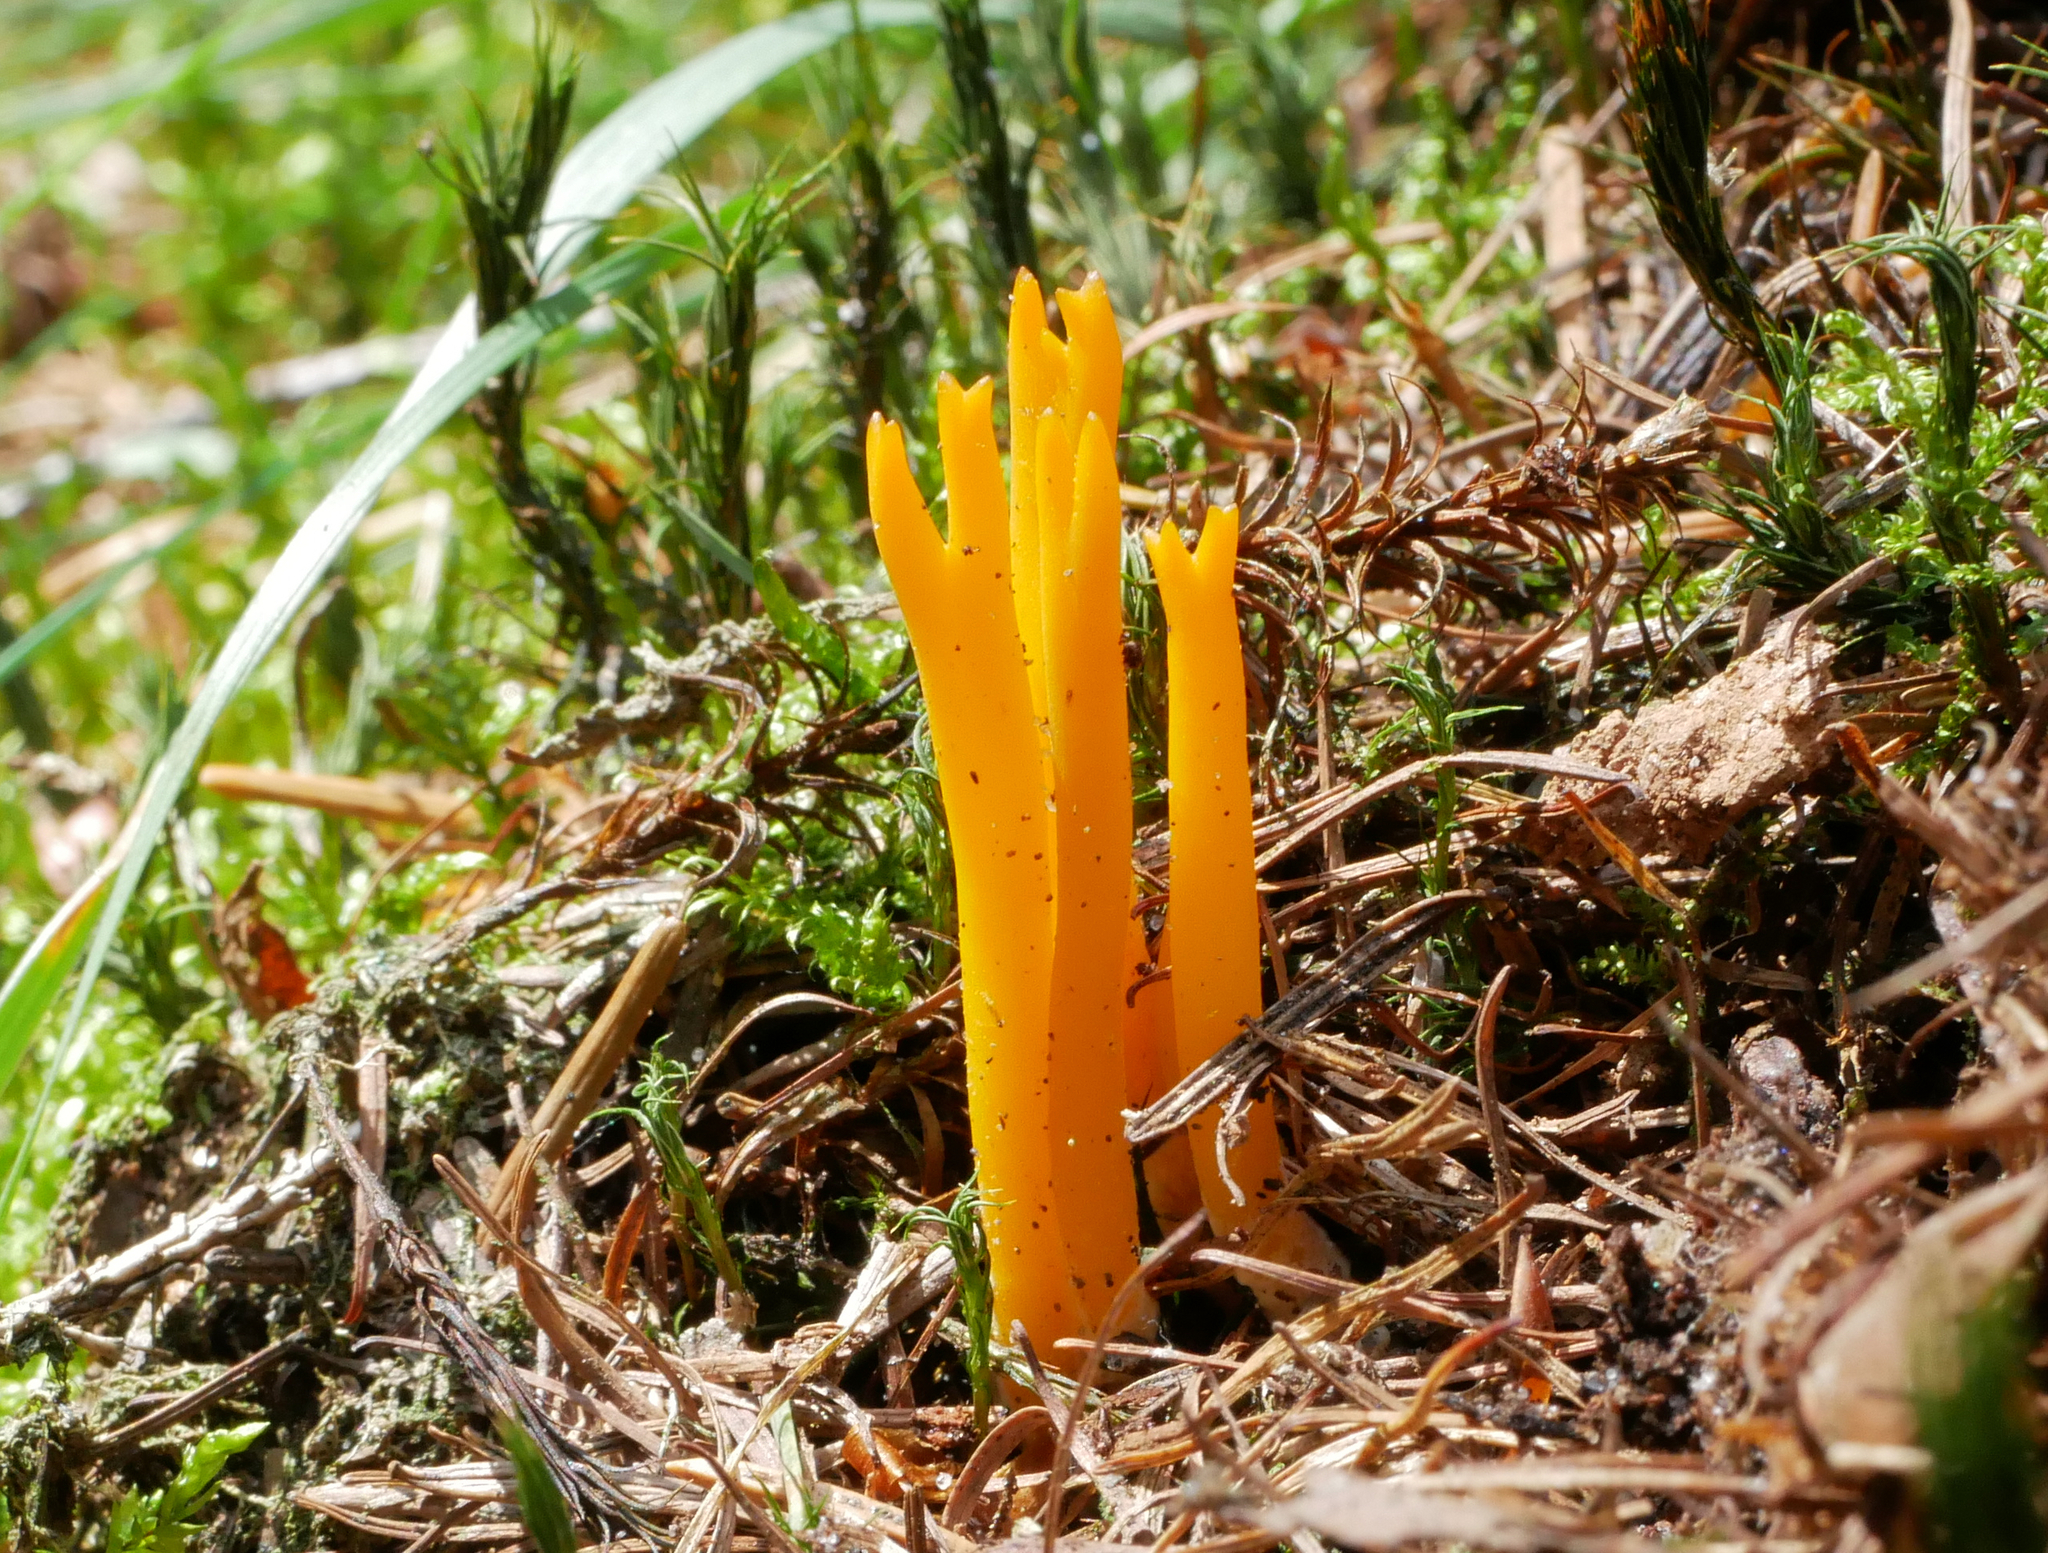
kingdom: Fungi
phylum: Basidiomycota
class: Dacrymycetes
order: Dacrymycetales
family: Dacrymycetaceae
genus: Calocera
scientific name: Calocera viscosa
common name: Yellow stagshorn
